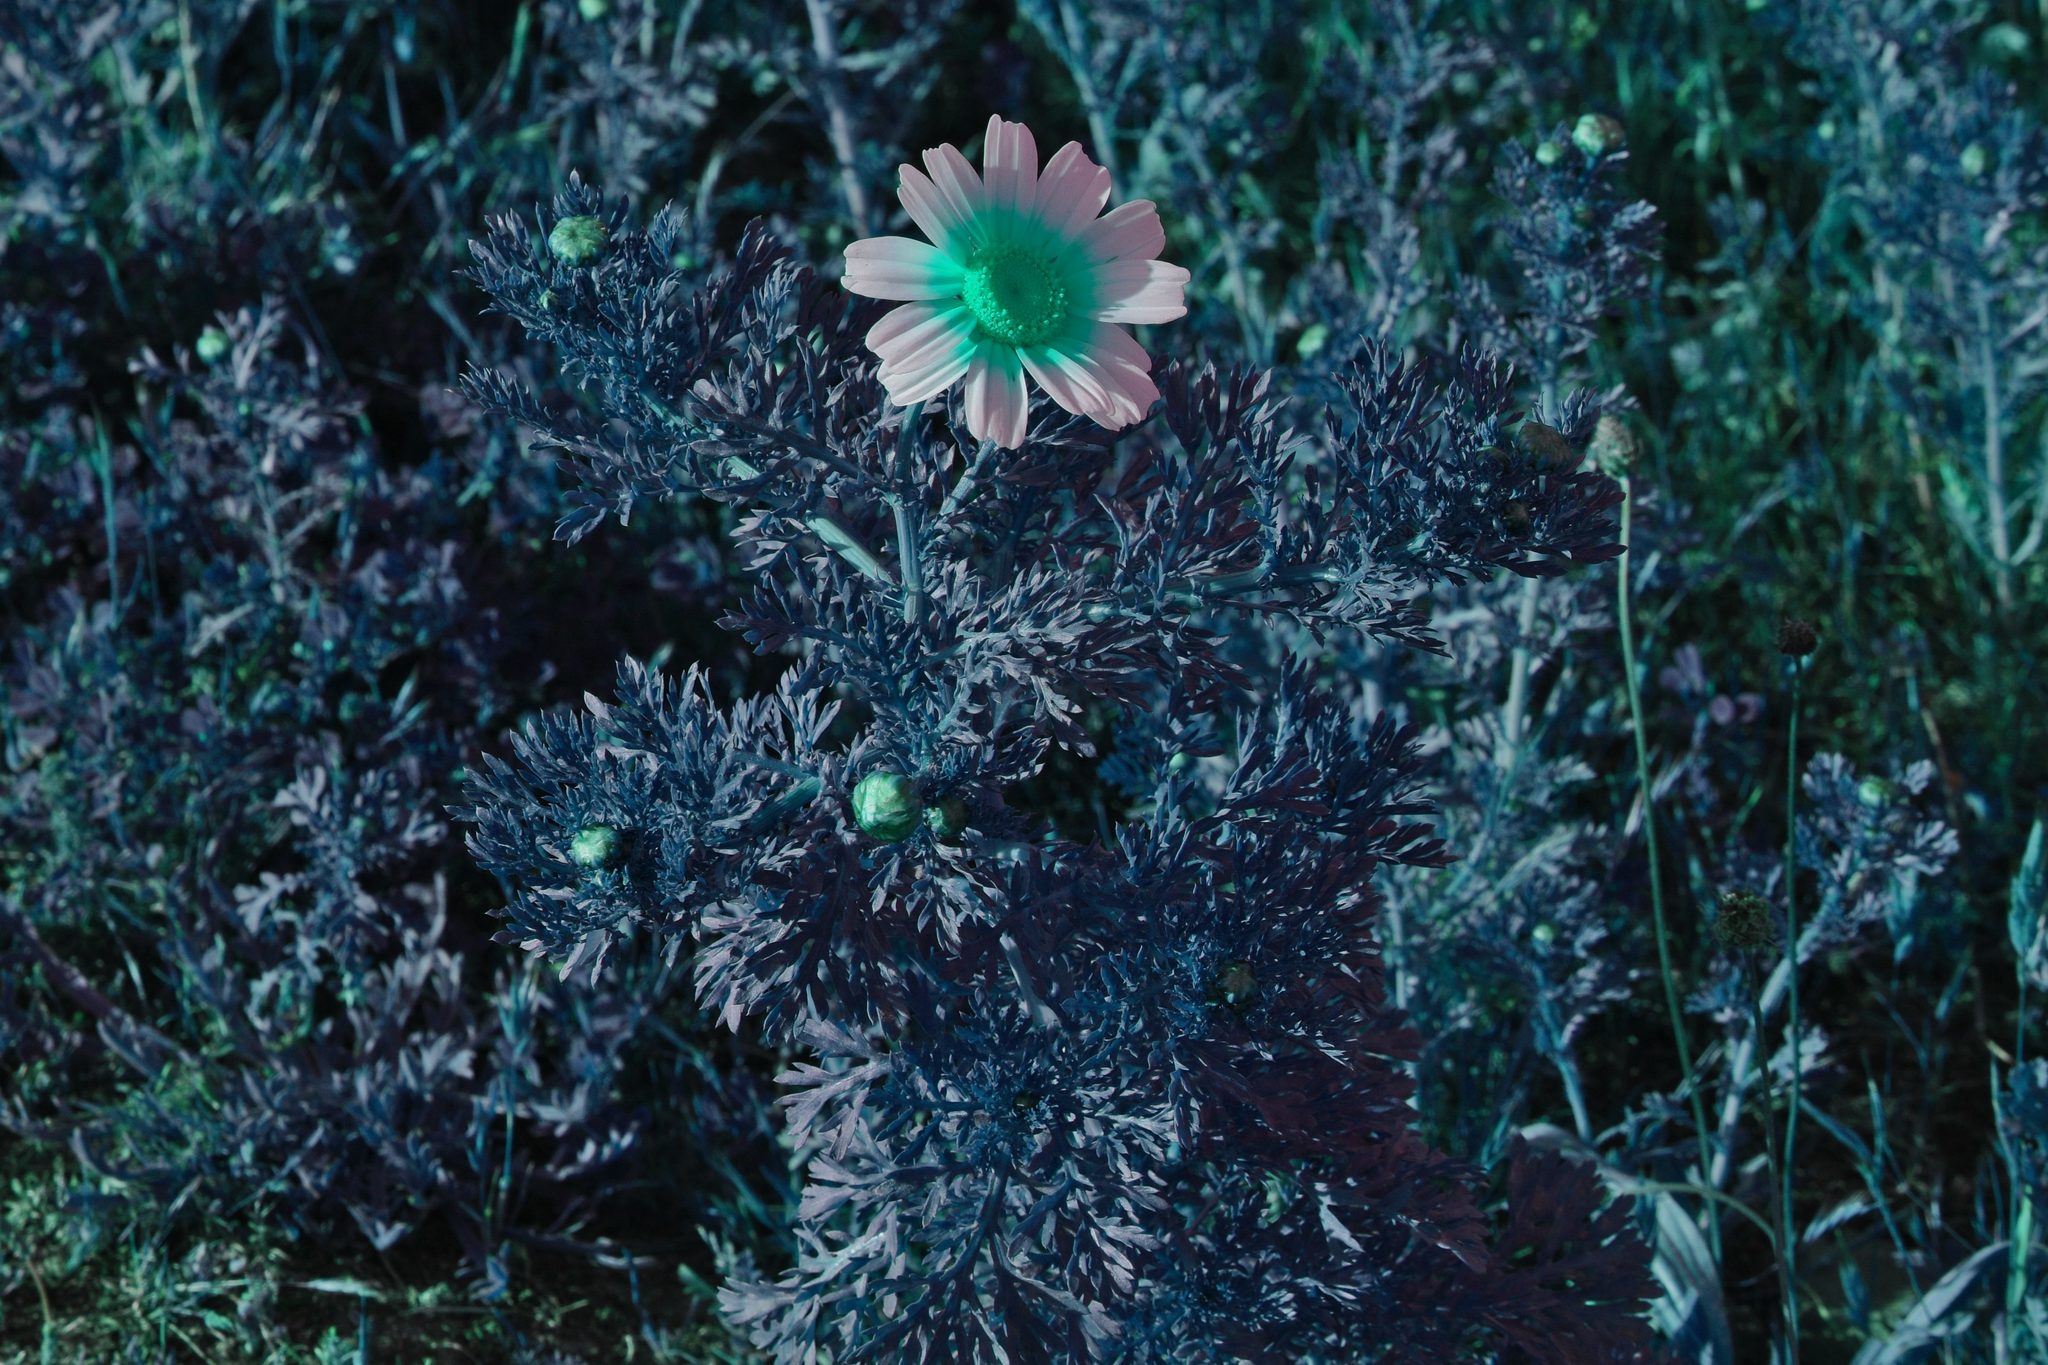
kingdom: Plantae
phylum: Tracheophyta
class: Magnoliopsida
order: Asterales
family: Asteraceae
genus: Glebionis
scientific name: Glebionis coronaria
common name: Crowndaisy
